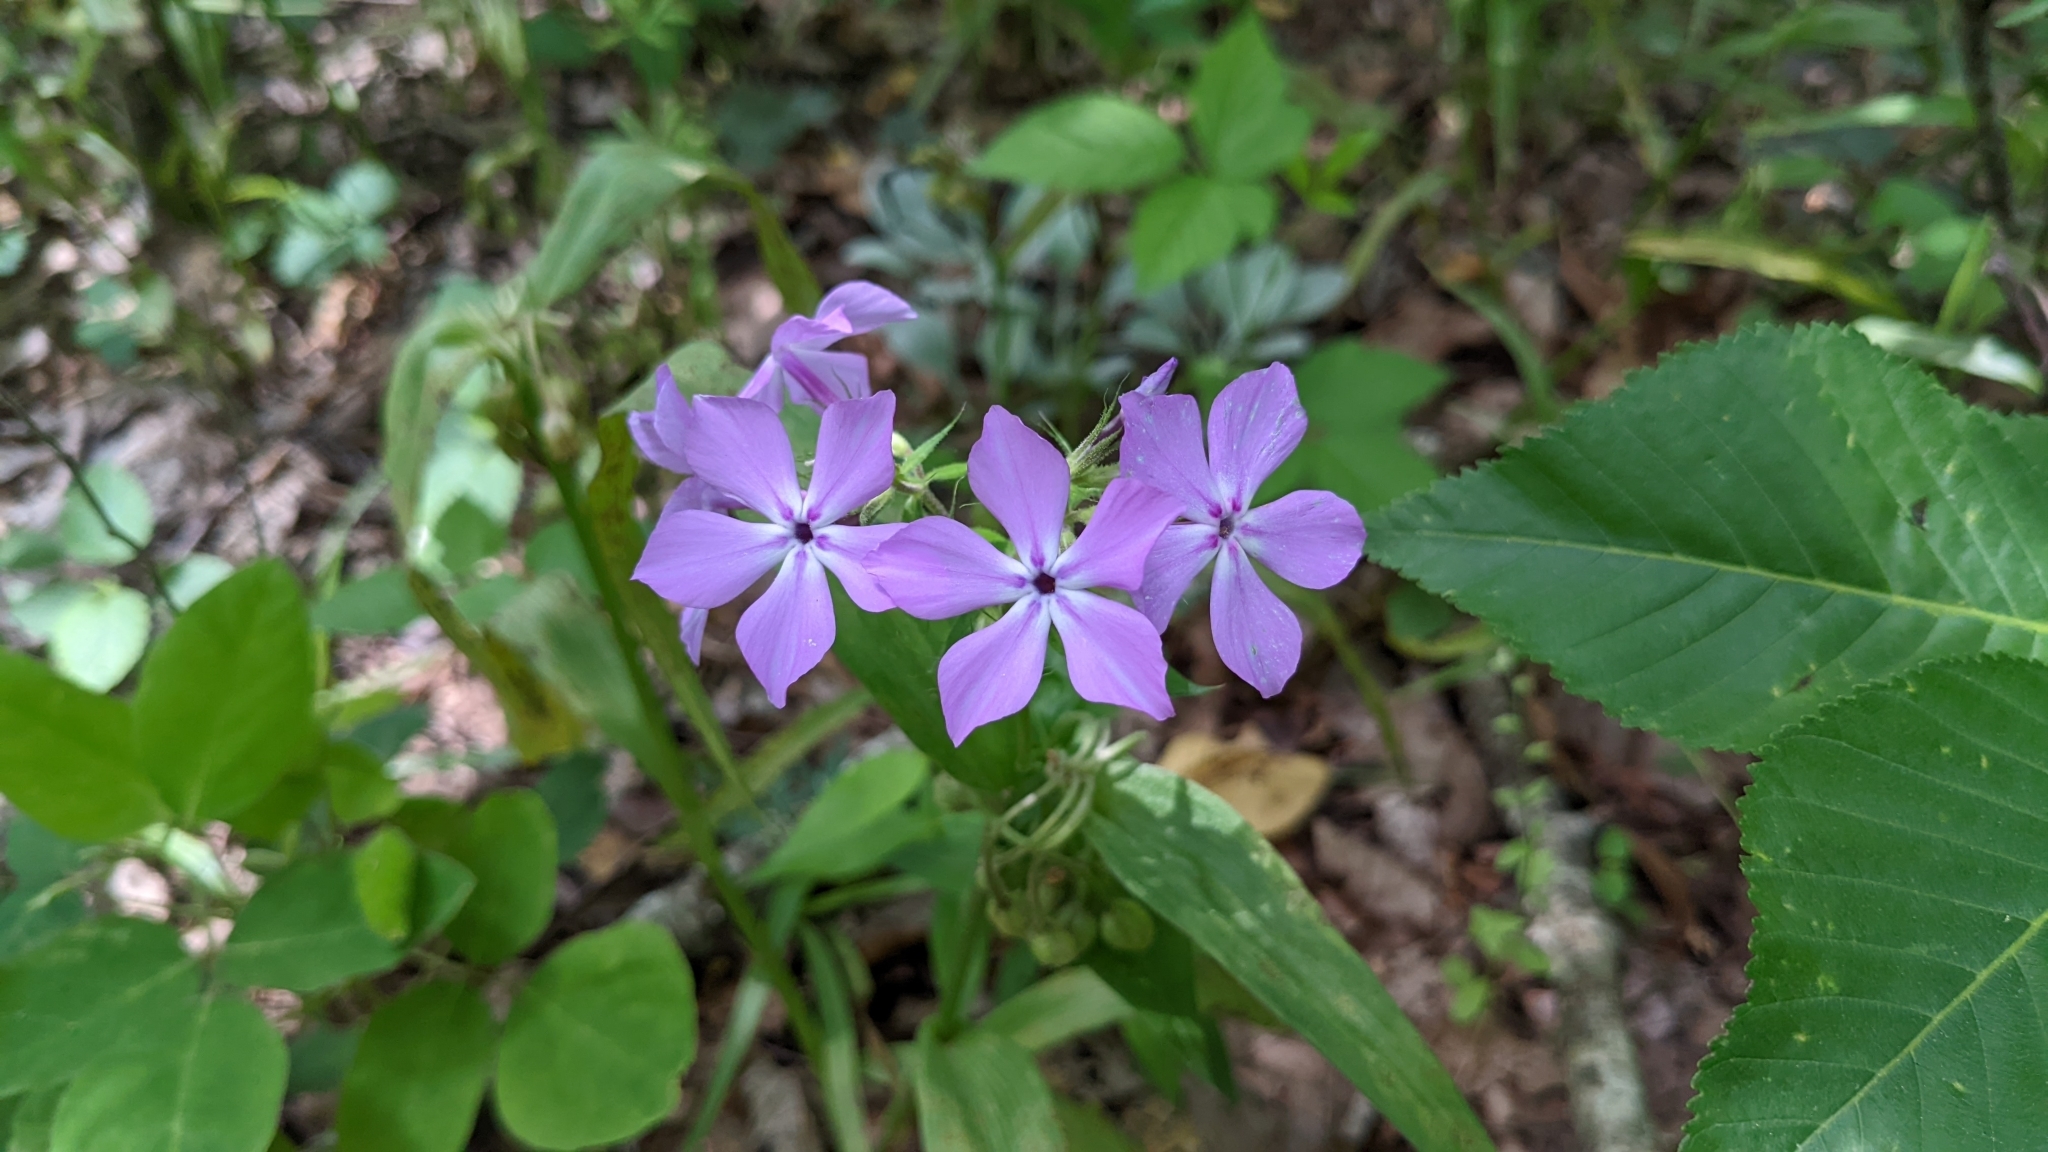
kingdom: Plantae
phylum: Tracheophyta
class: Magnoliopsida
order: Ericales
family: Polemoniaceae
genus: Phlox
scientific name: Phlox pilosa
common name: Prairie phlox
